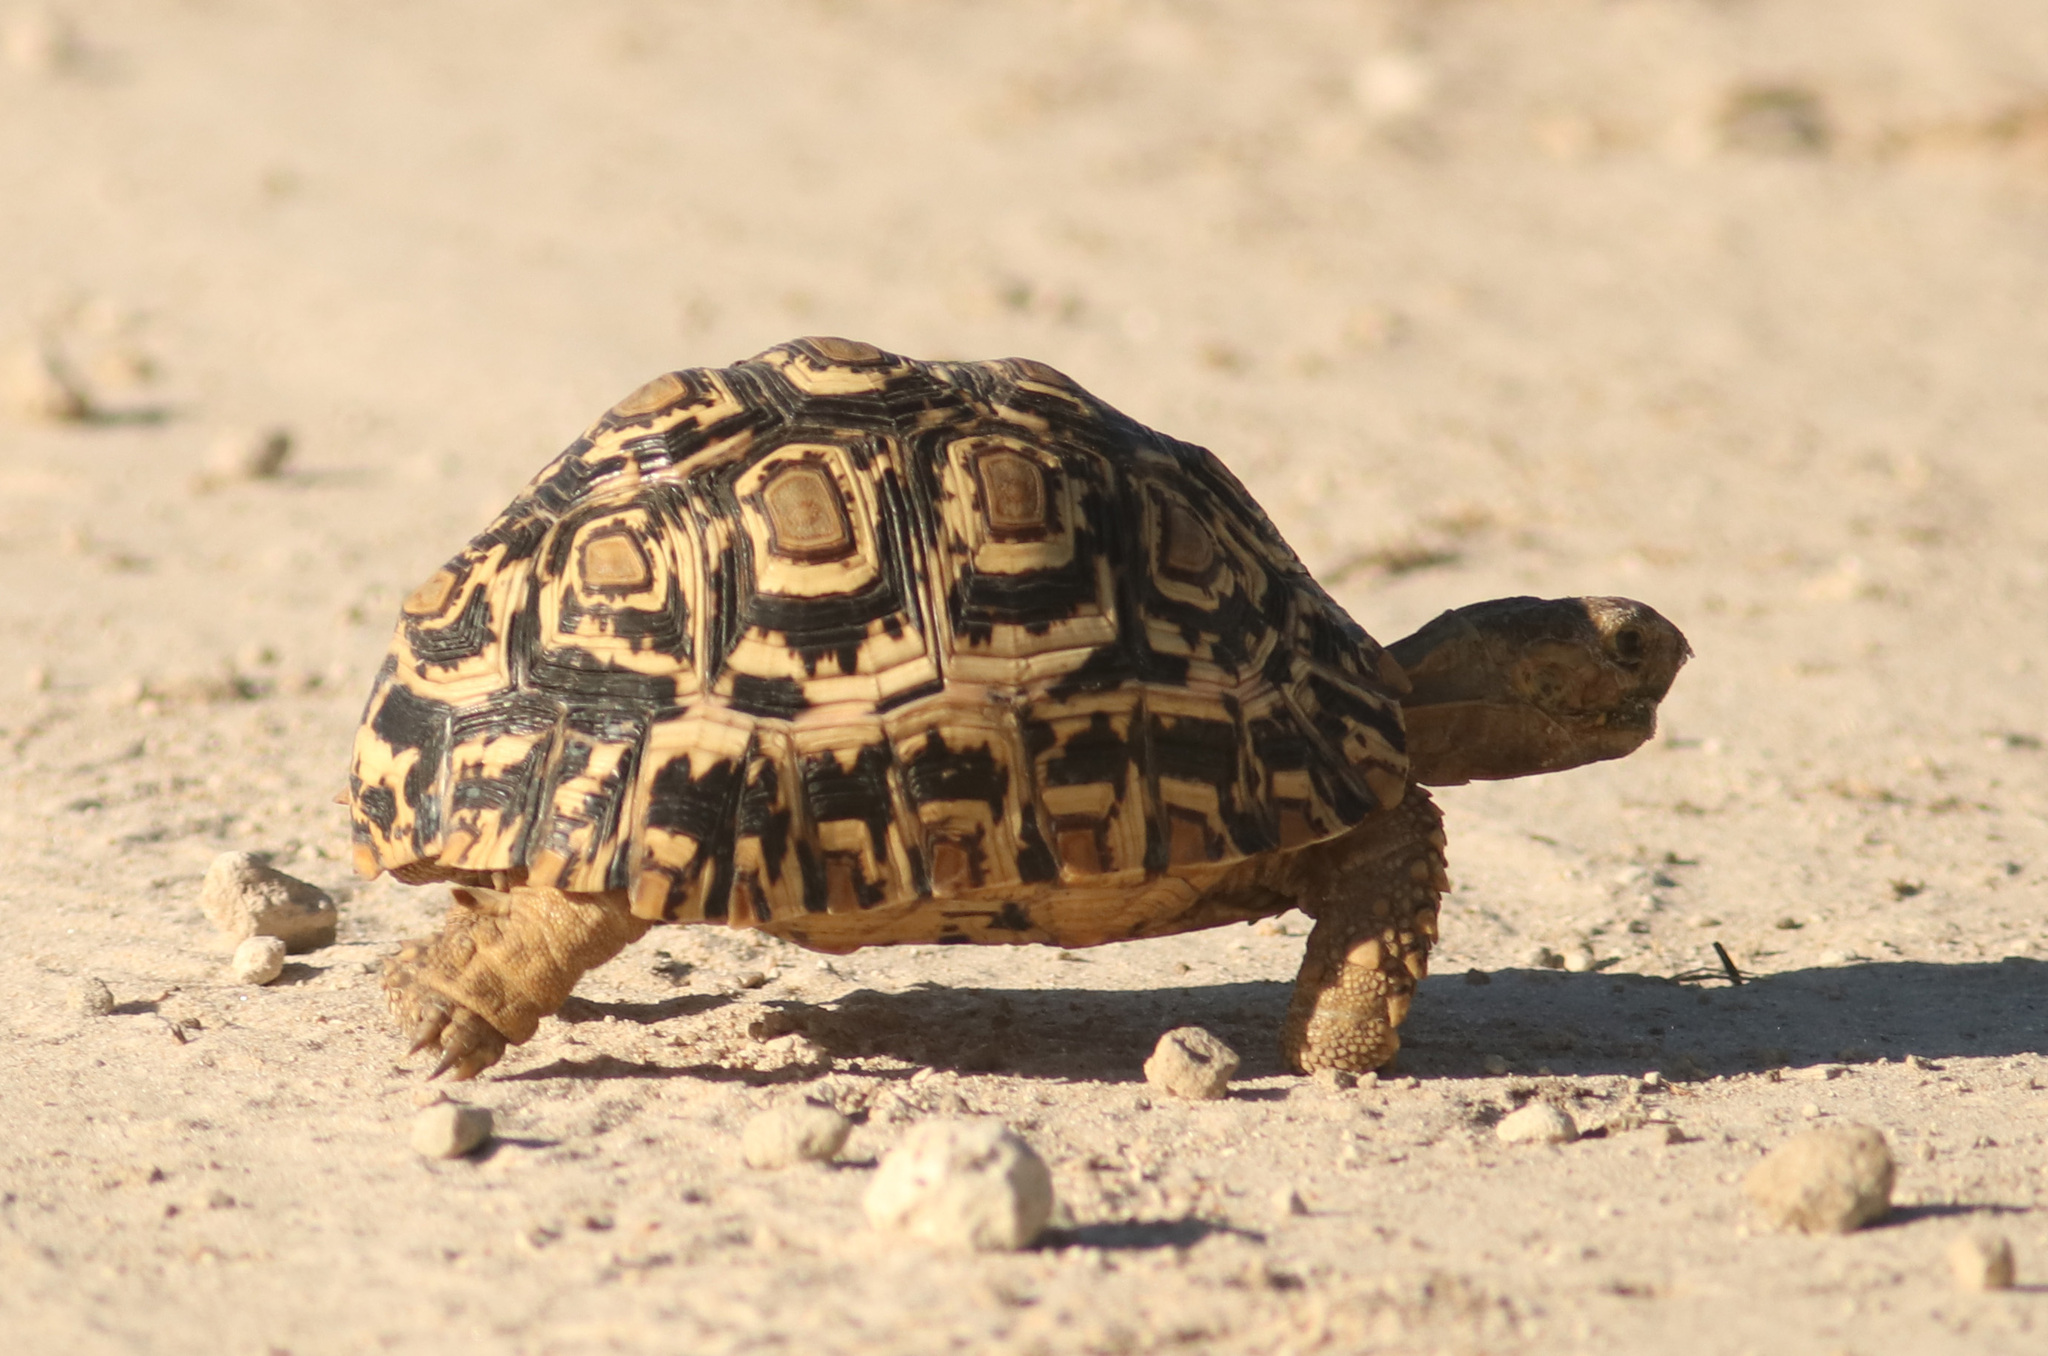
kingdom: Animalia
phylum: Chordata
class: Testudines
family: Testudinidae
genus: Stigmochelys
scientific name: Stigmochelys pardalis
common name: Leopard tortoise
